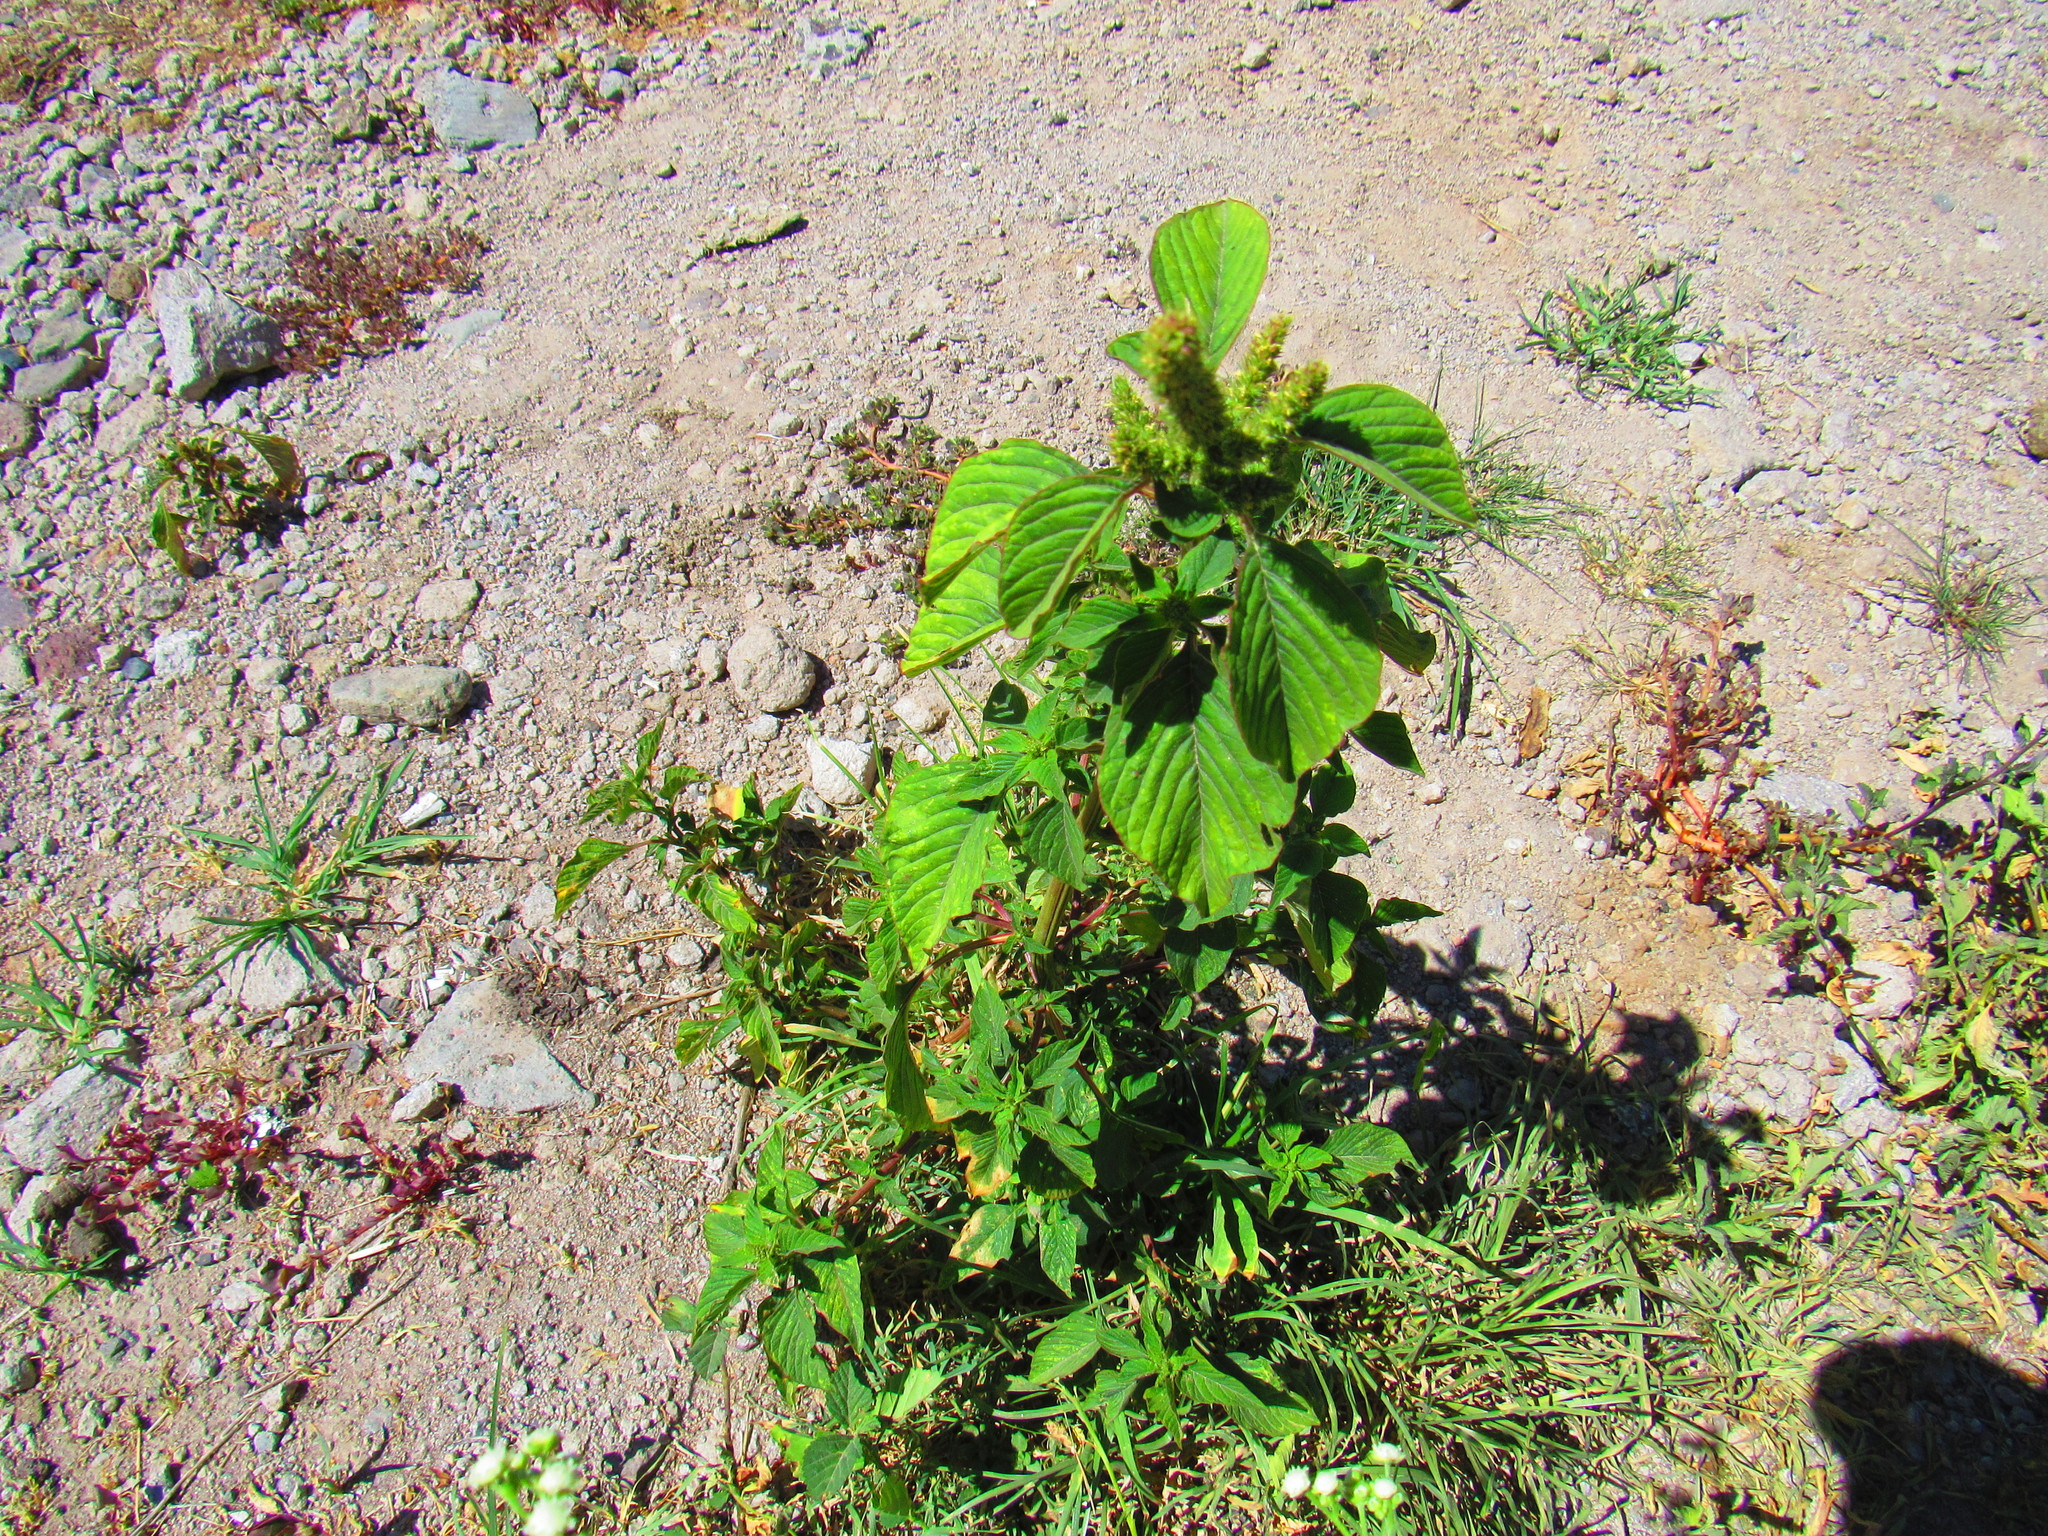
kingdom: Plantae
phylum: Tracheophyta
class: Magnoliopsida
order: Caryophyllales
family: Amaranthaceae
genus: Amaranthus
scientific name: Amaranthus hybridus
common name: Green amaranth
